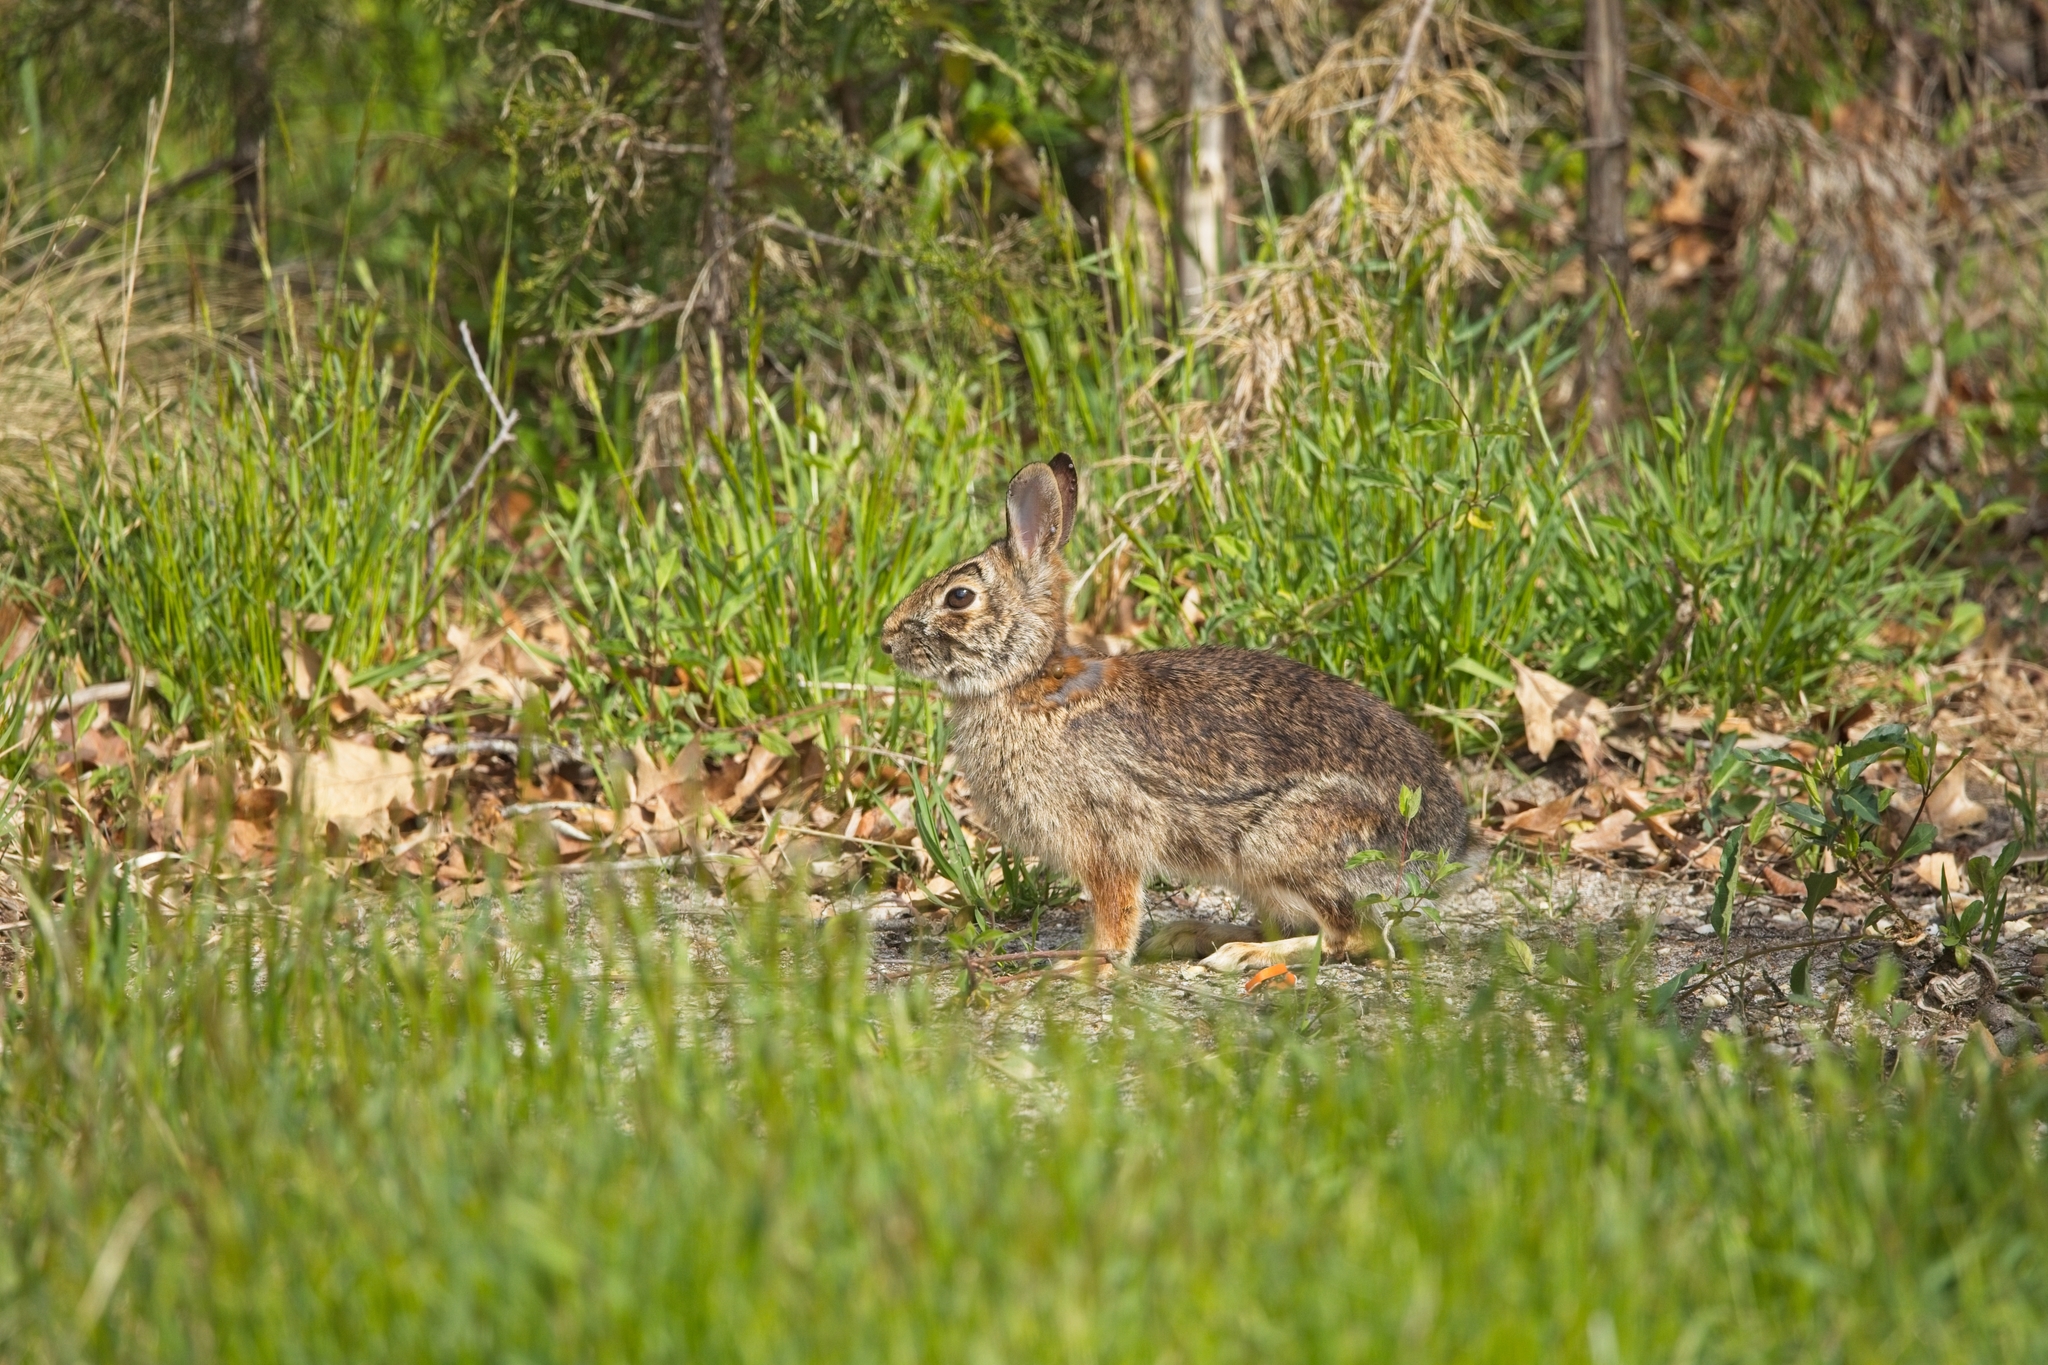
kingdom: Animalia
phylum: Chordata
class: Mammalia
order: Lagomorpha
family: Leporidae
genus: Sylvilagus
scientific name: Sylvilagus floridanus
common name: Eastern cottontail
